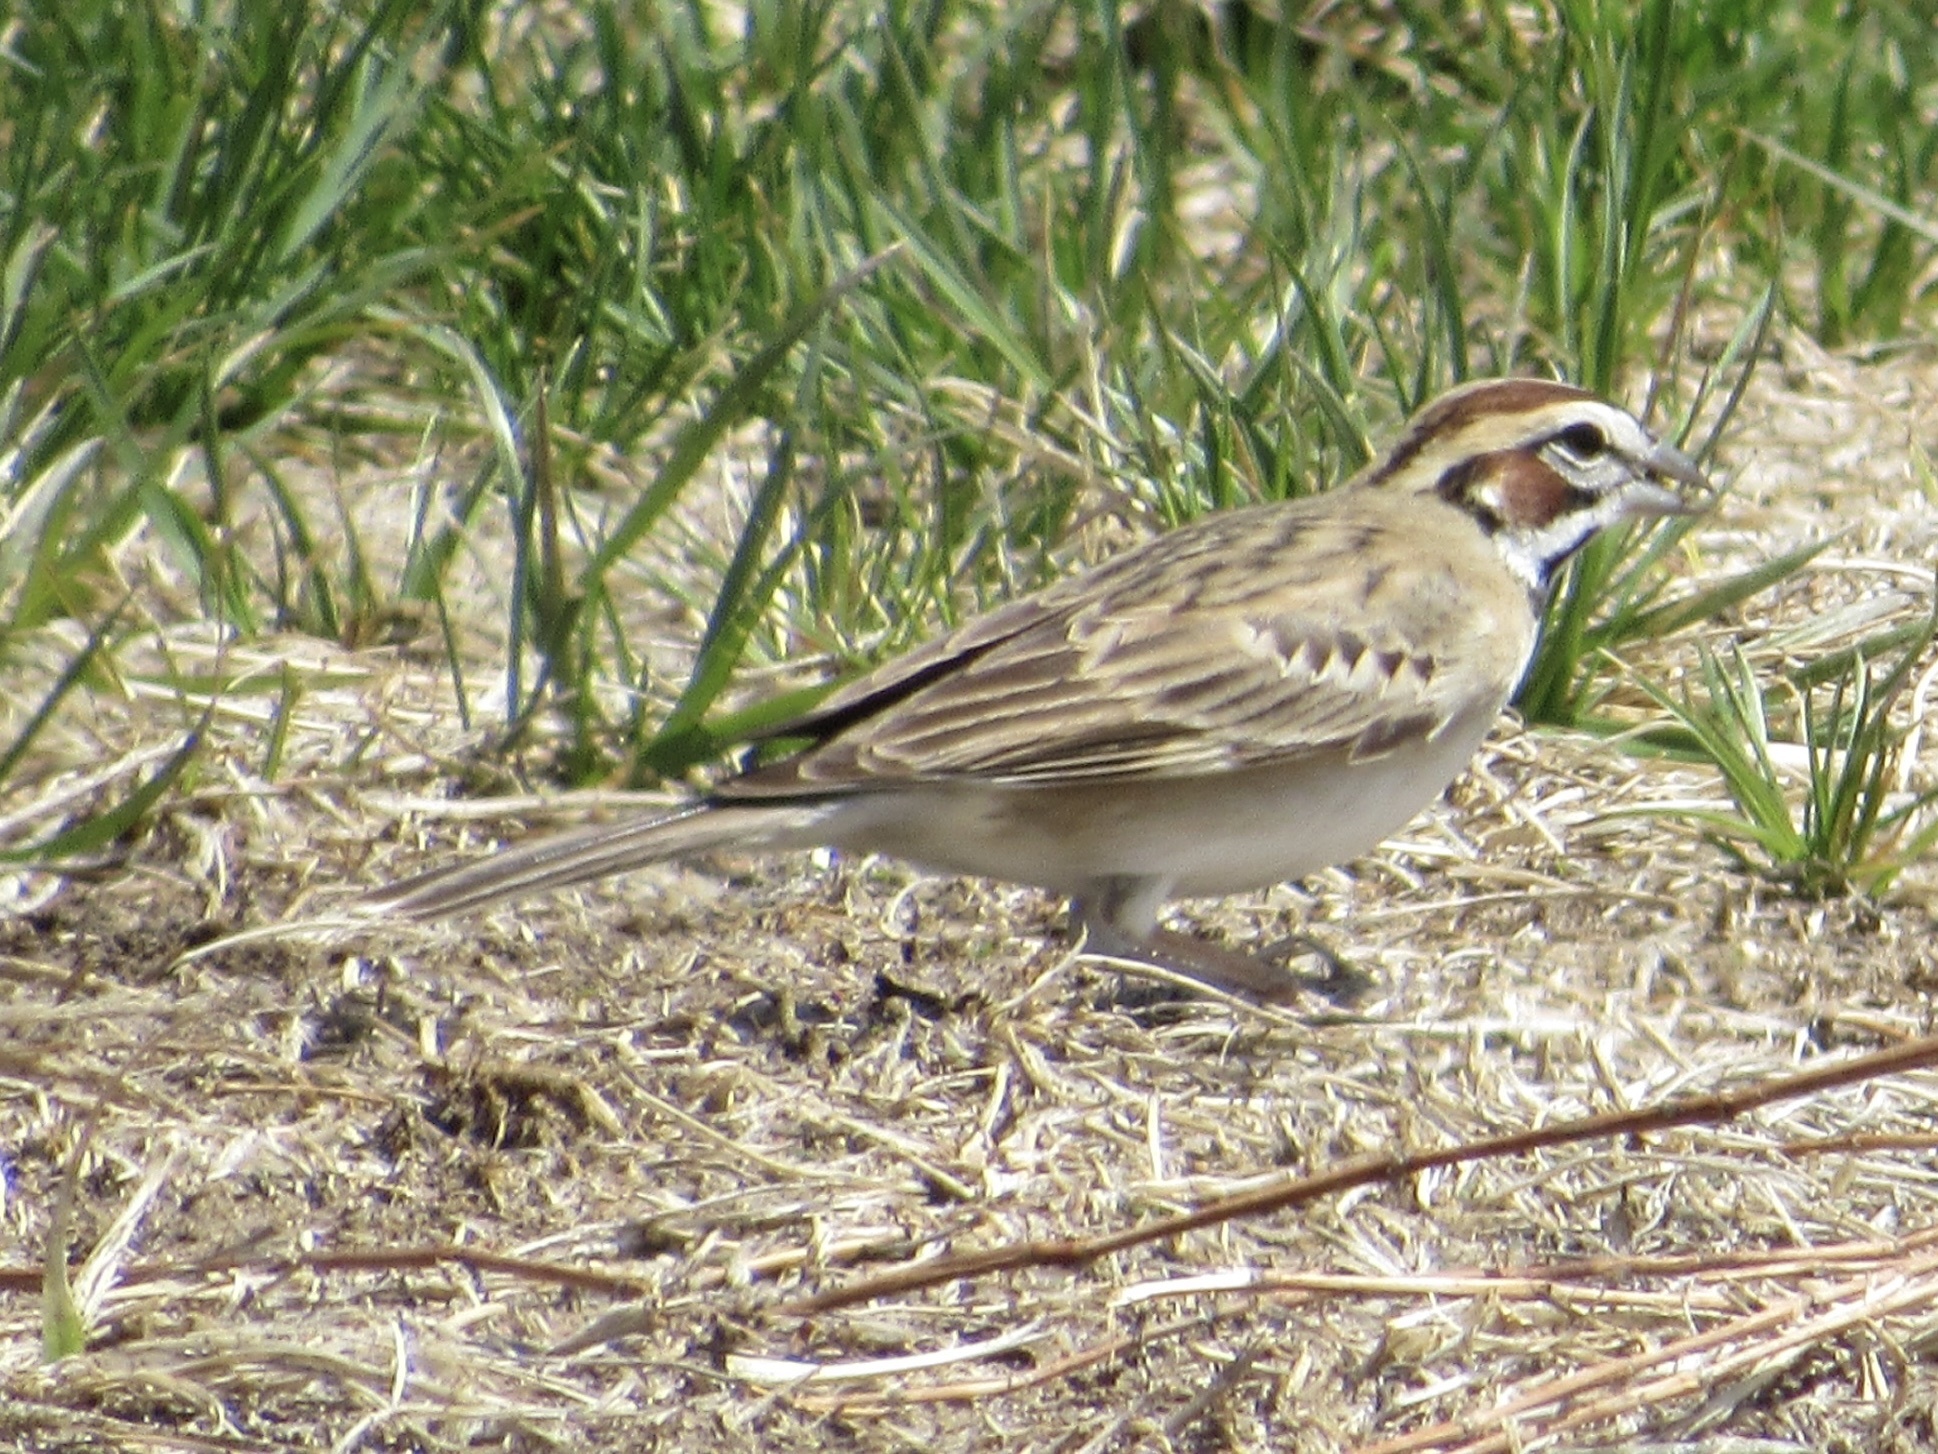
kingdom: Animalia
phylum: Chordata
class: Aves
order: Passeriformes
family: Passerellidae
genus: Chondestes
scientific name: Chondestes grammacus
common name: Lark sparrow
